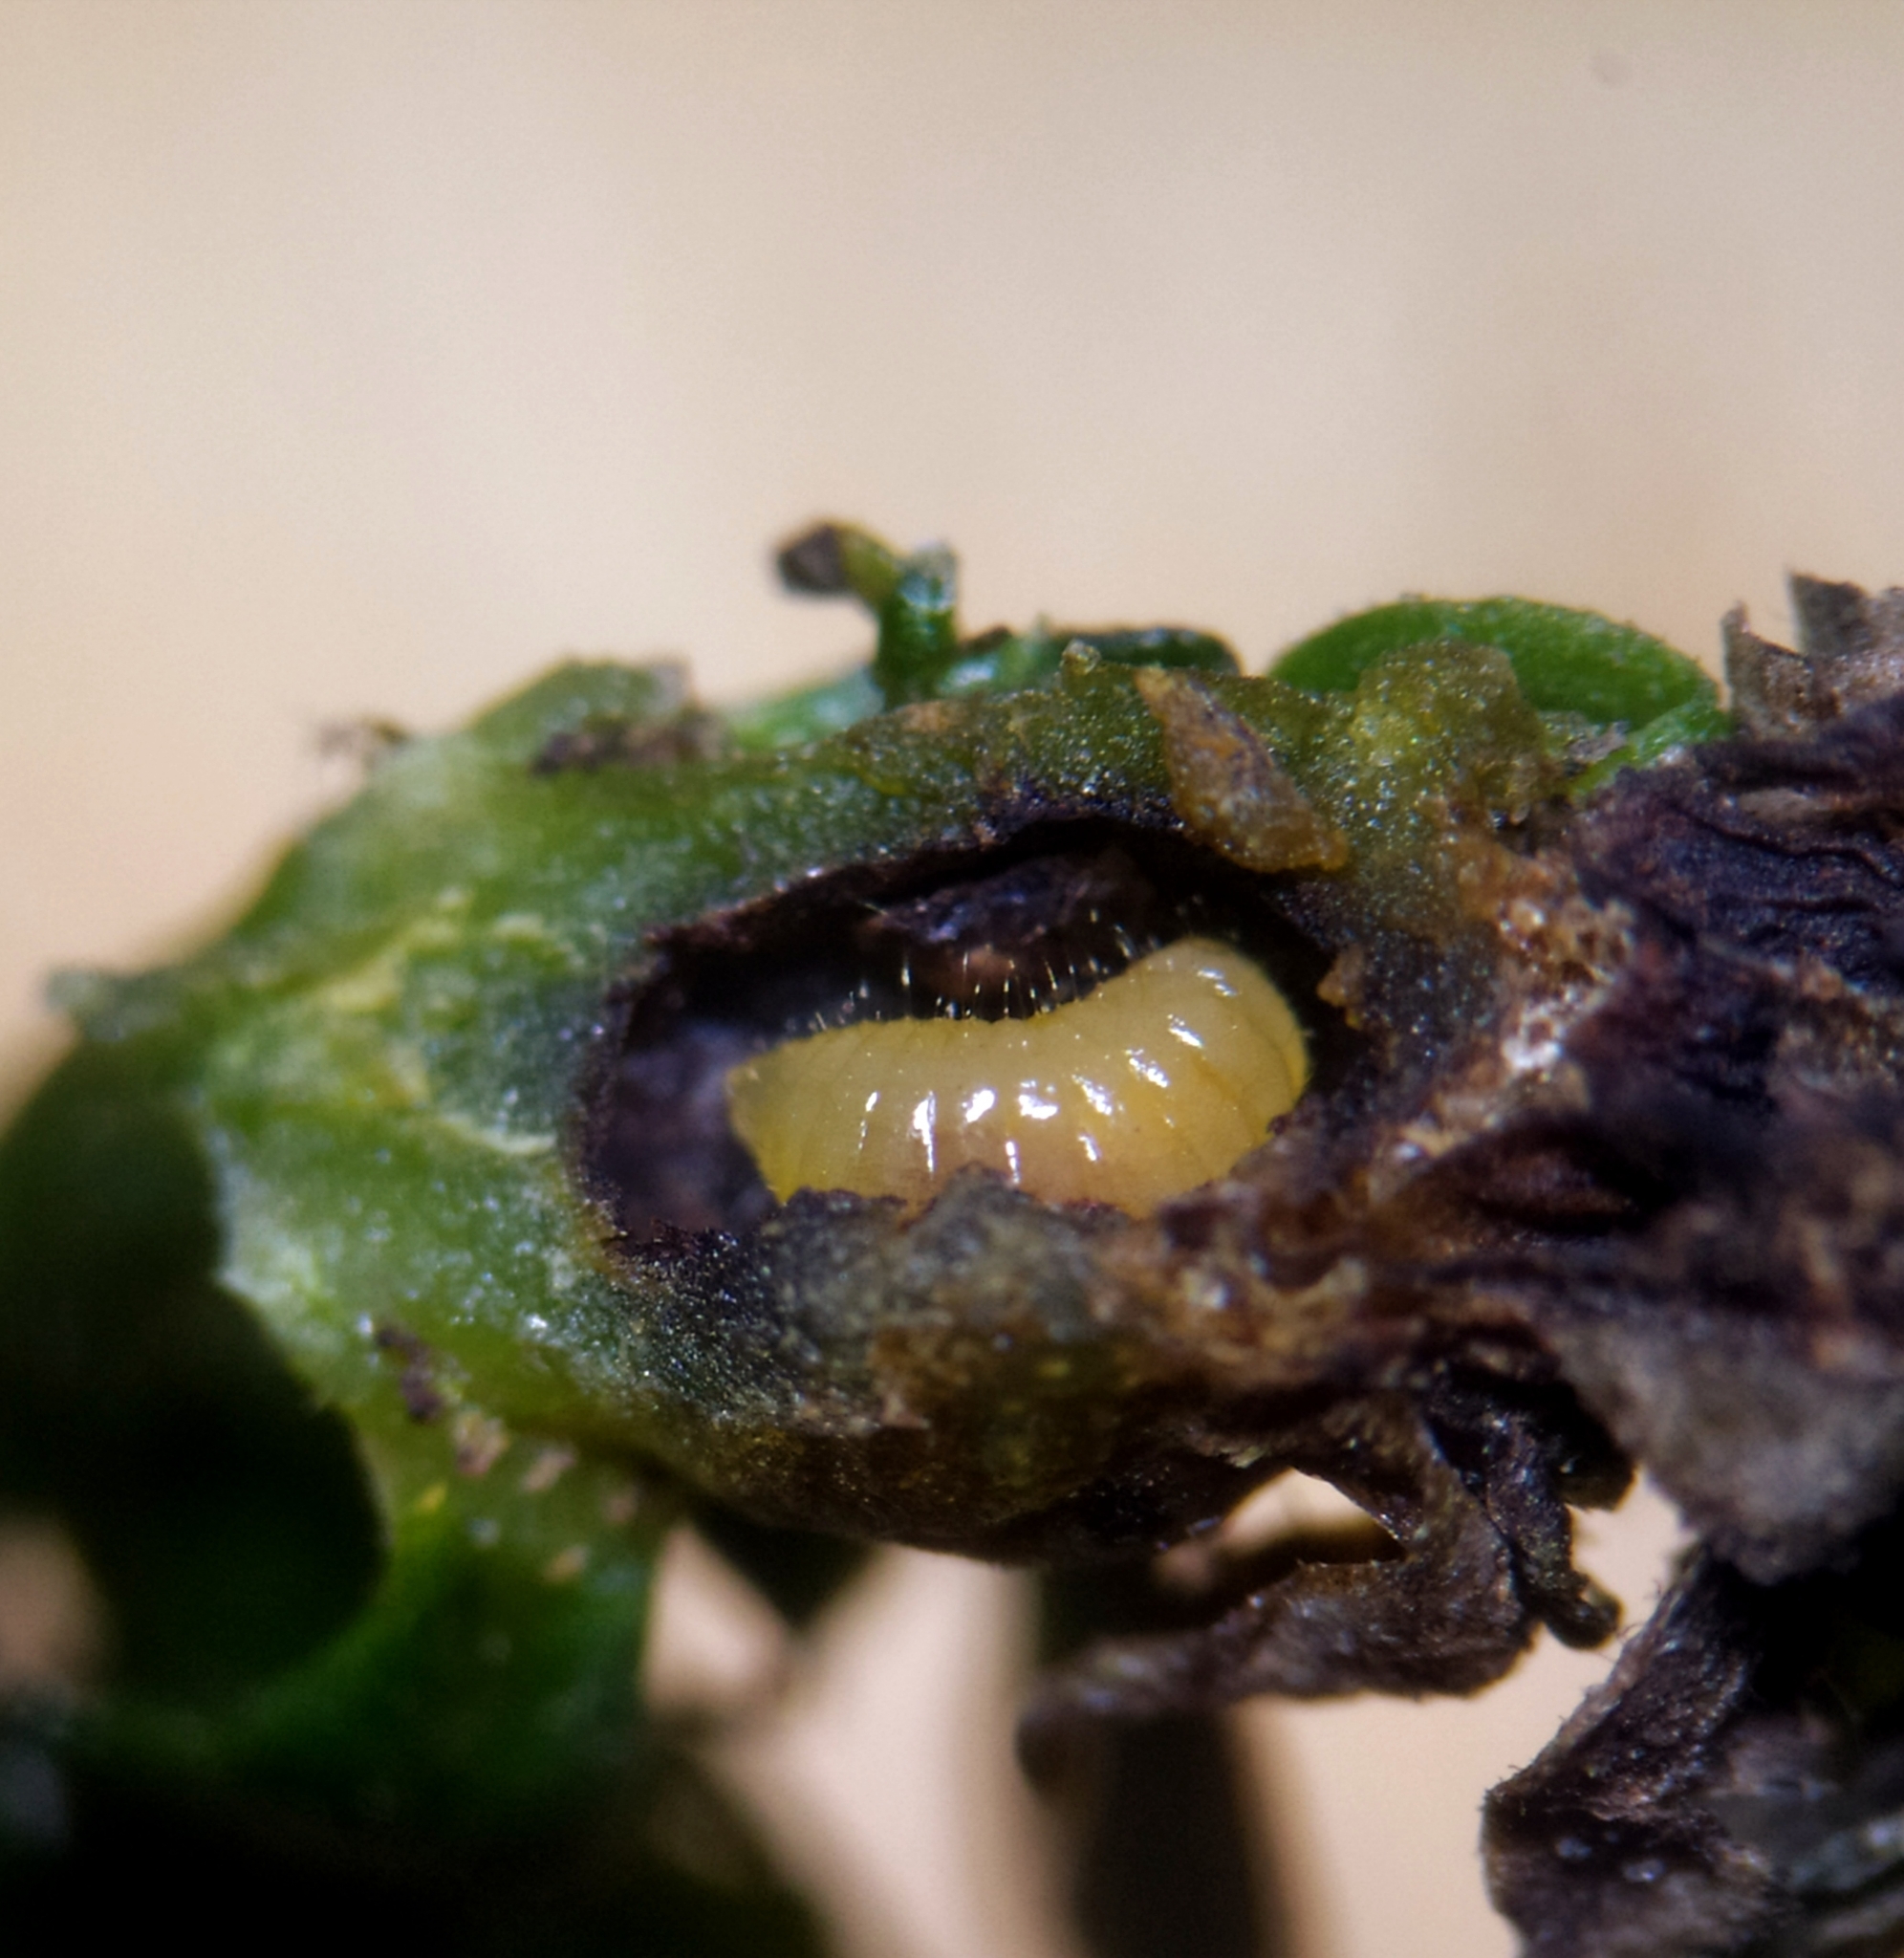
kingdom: Animalia
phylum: Arthropoda
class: Insecta
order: Diptera
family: Cecidomyiidae
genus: Geocrypta
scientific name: Geocrypta galii
